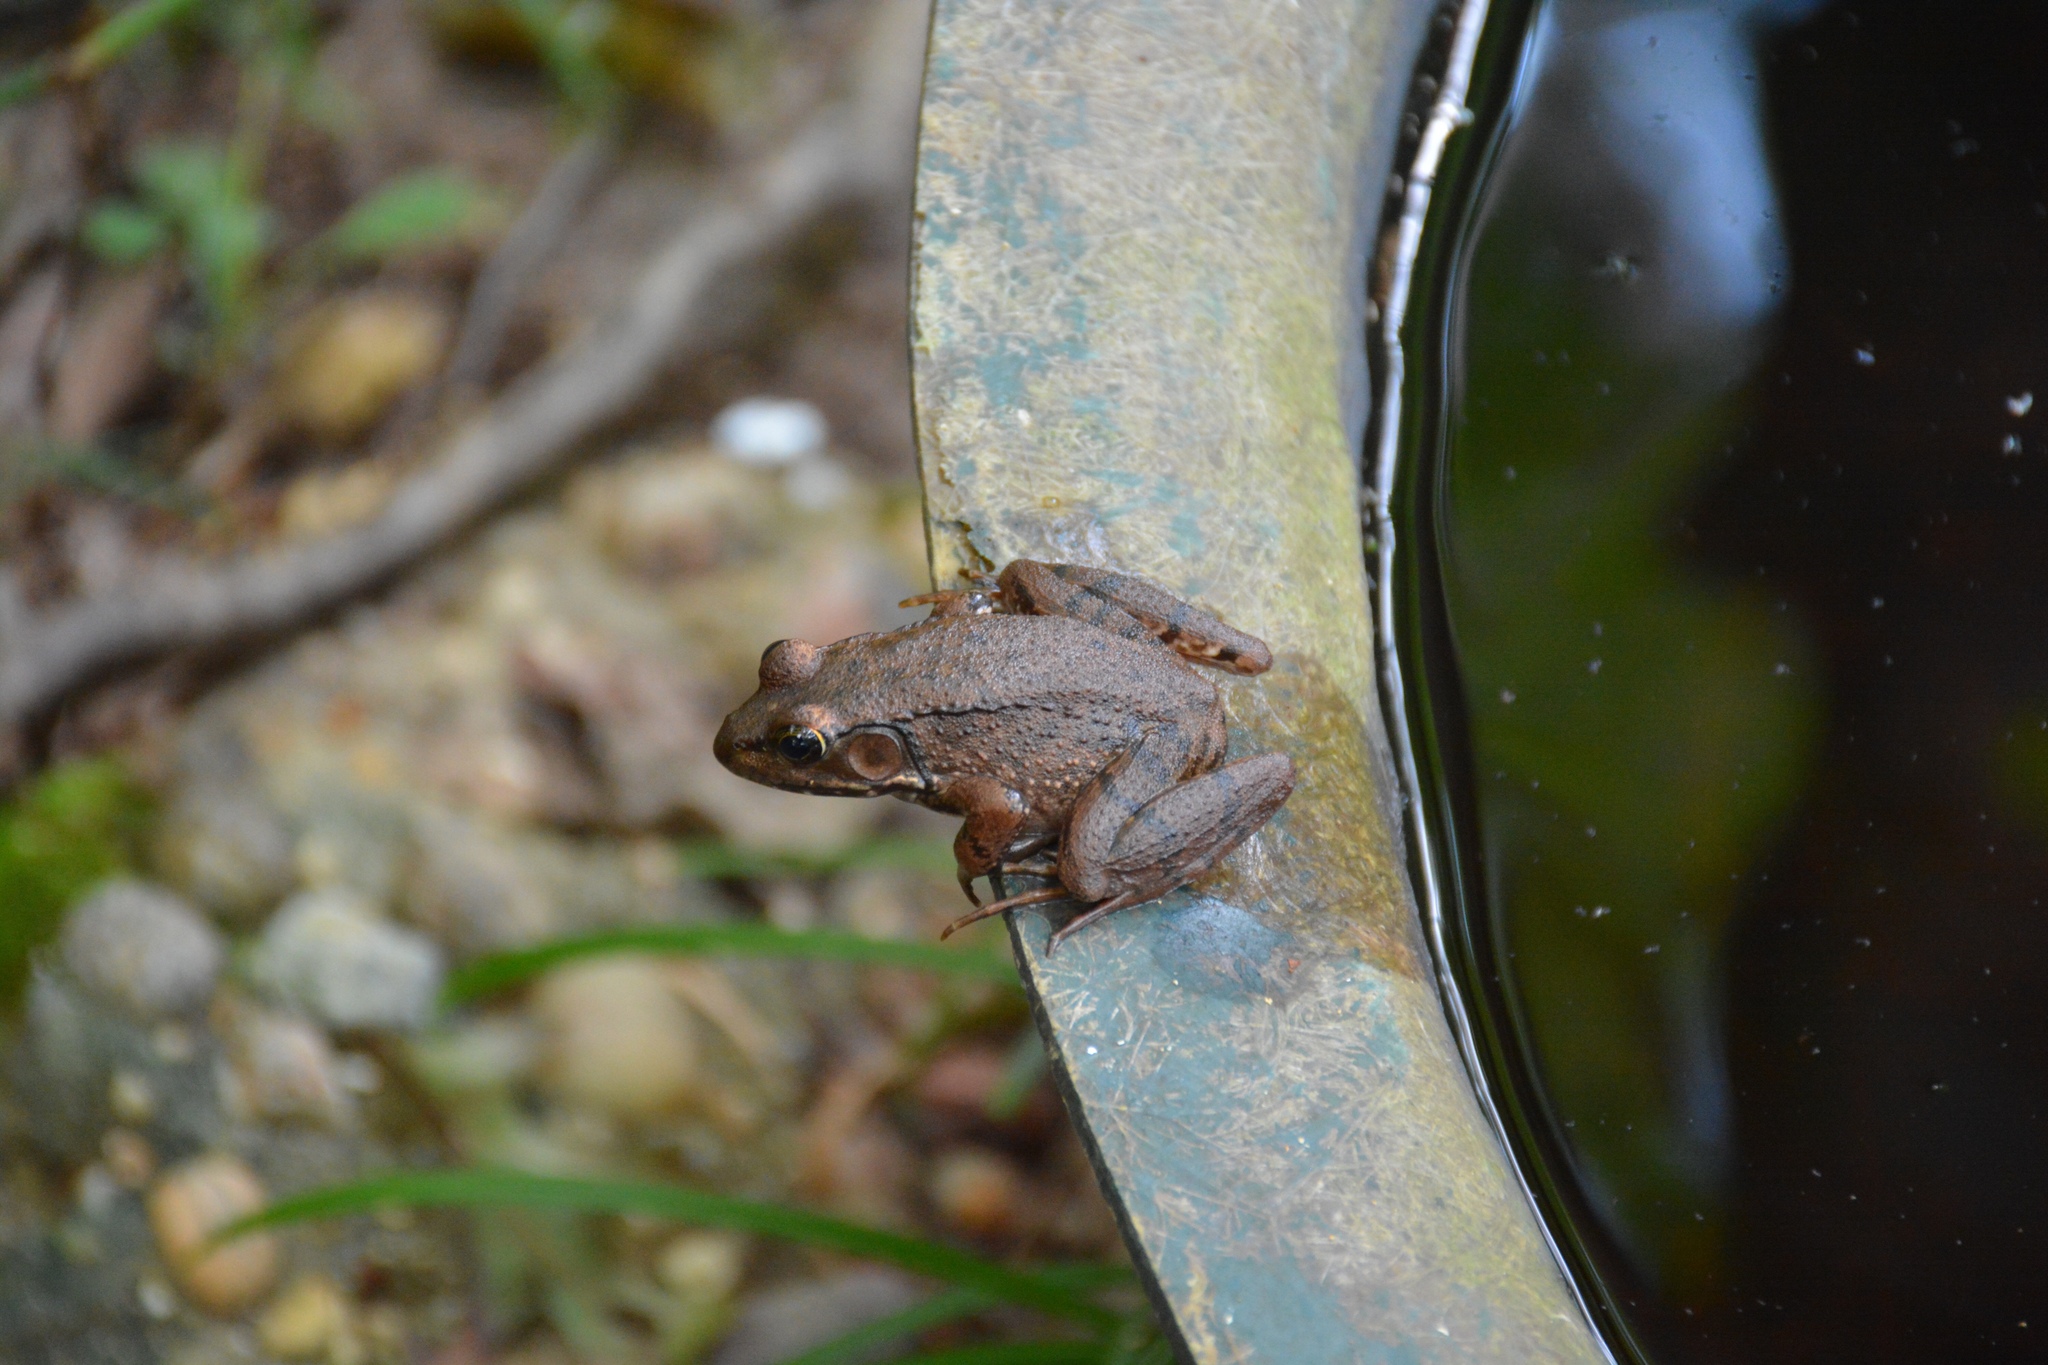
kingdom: Animalia
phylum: Chordata
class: Amphibia
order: Anura
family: Ranidae
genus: Lithobates
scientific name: Lithobates clamitans
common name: Green frog
